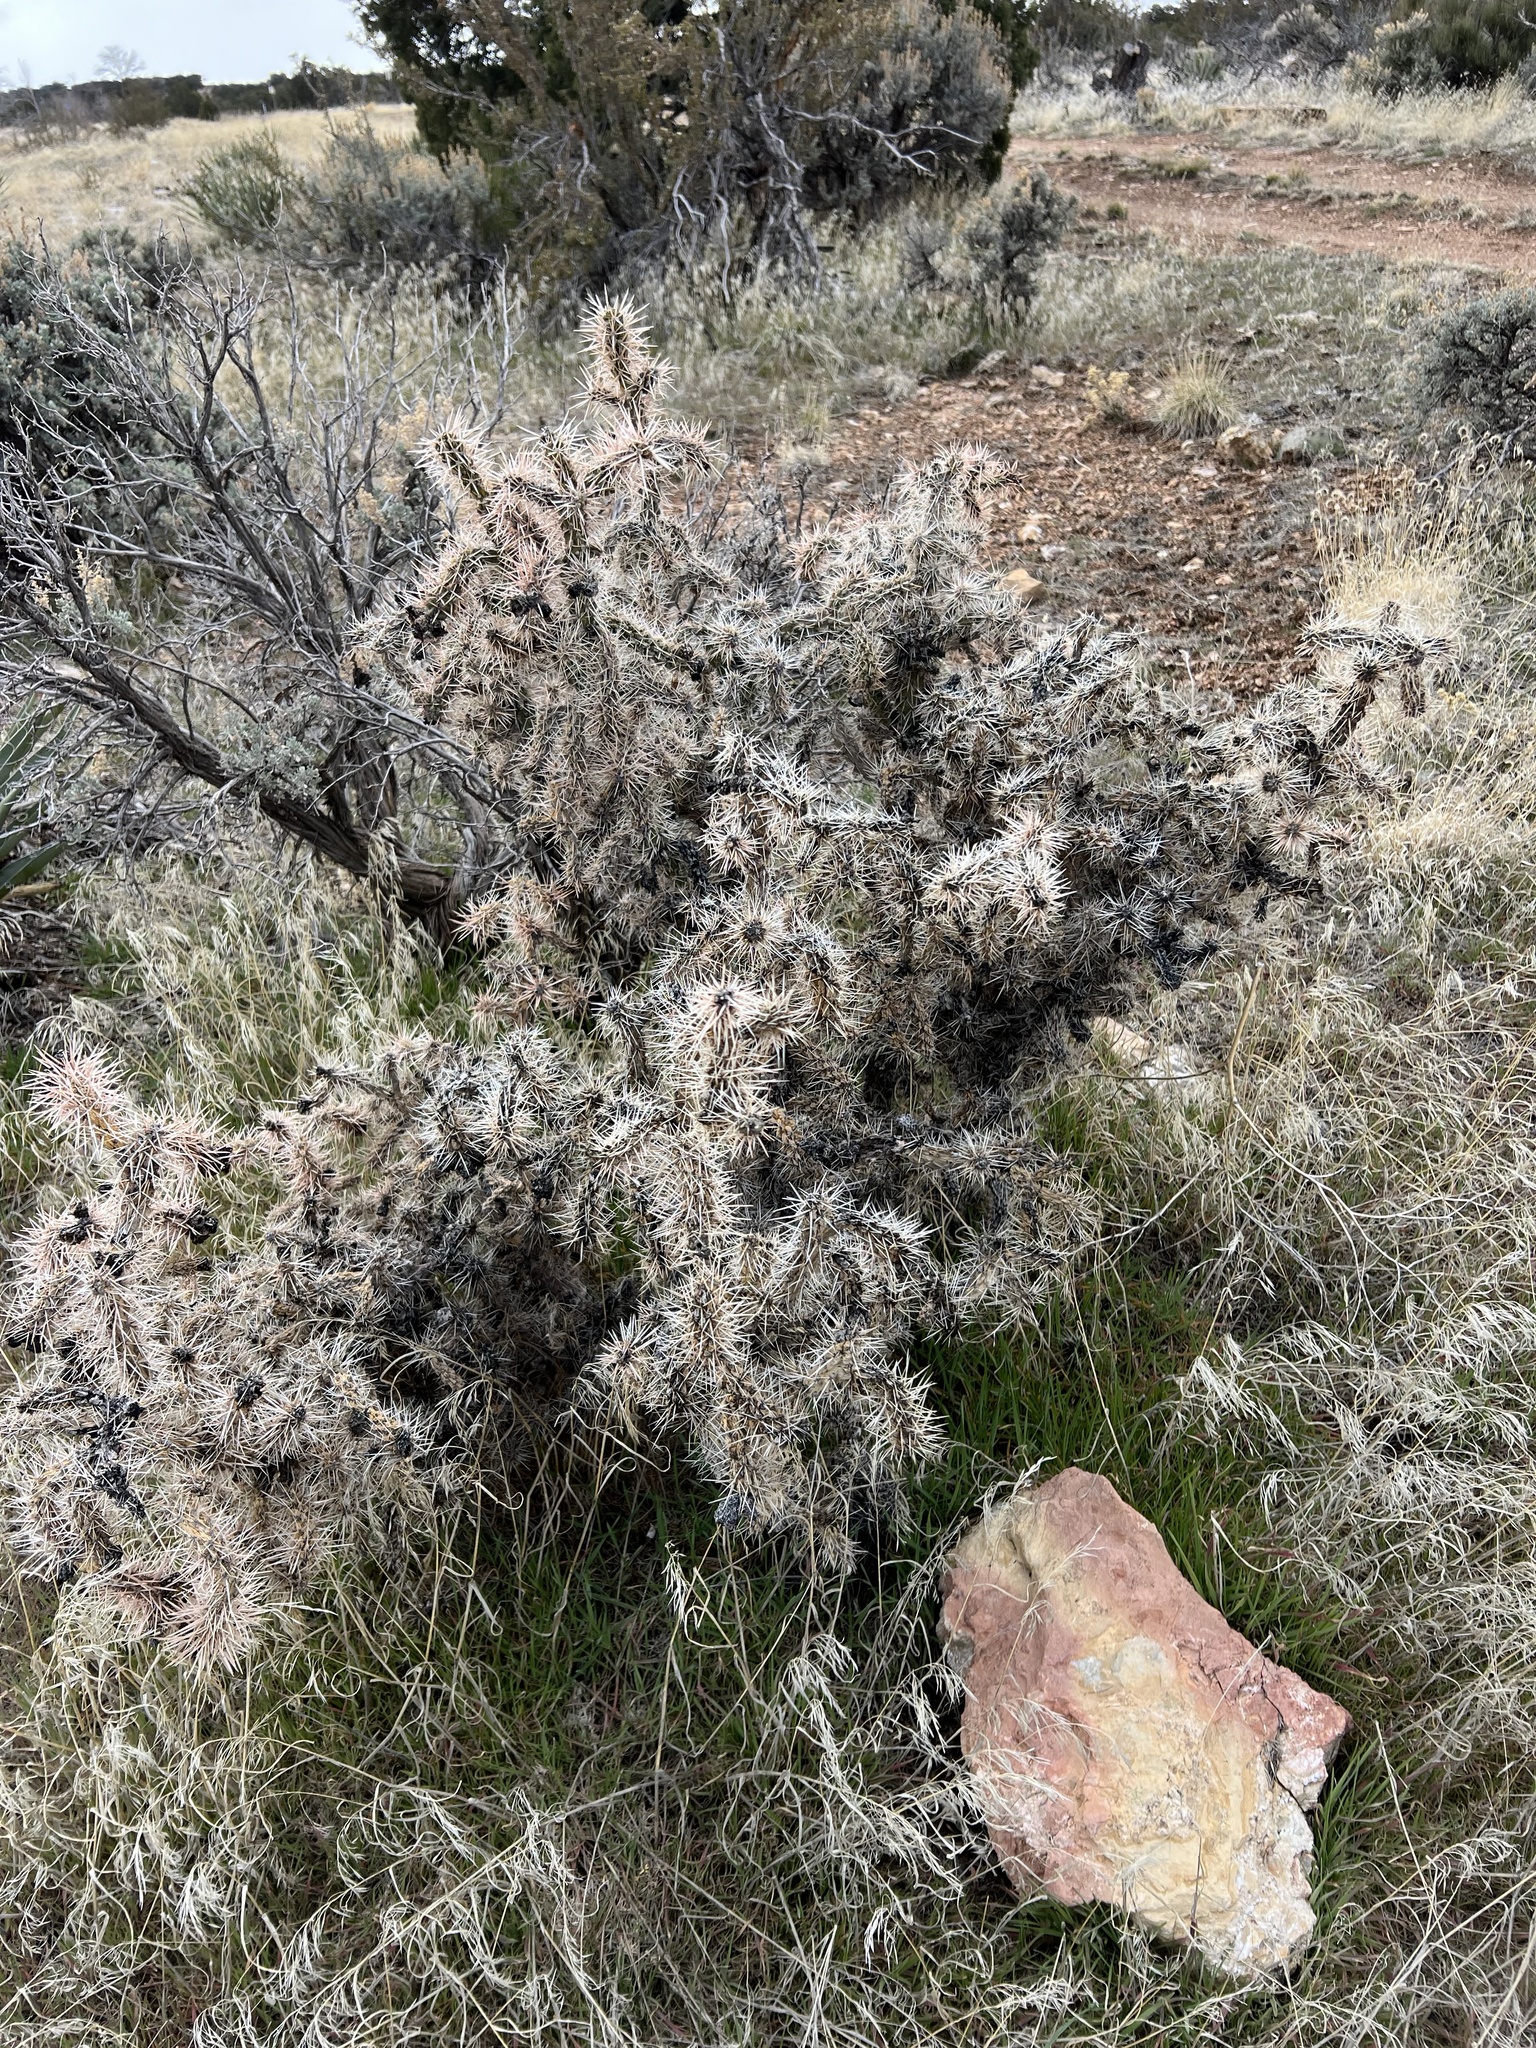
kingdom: Plantae
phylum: Tracheophyta
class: Magnoliopsida
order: Caryophyllales
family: Cactaceae
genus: Cylindropuntia
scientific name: Cylindropuntia whipplei
